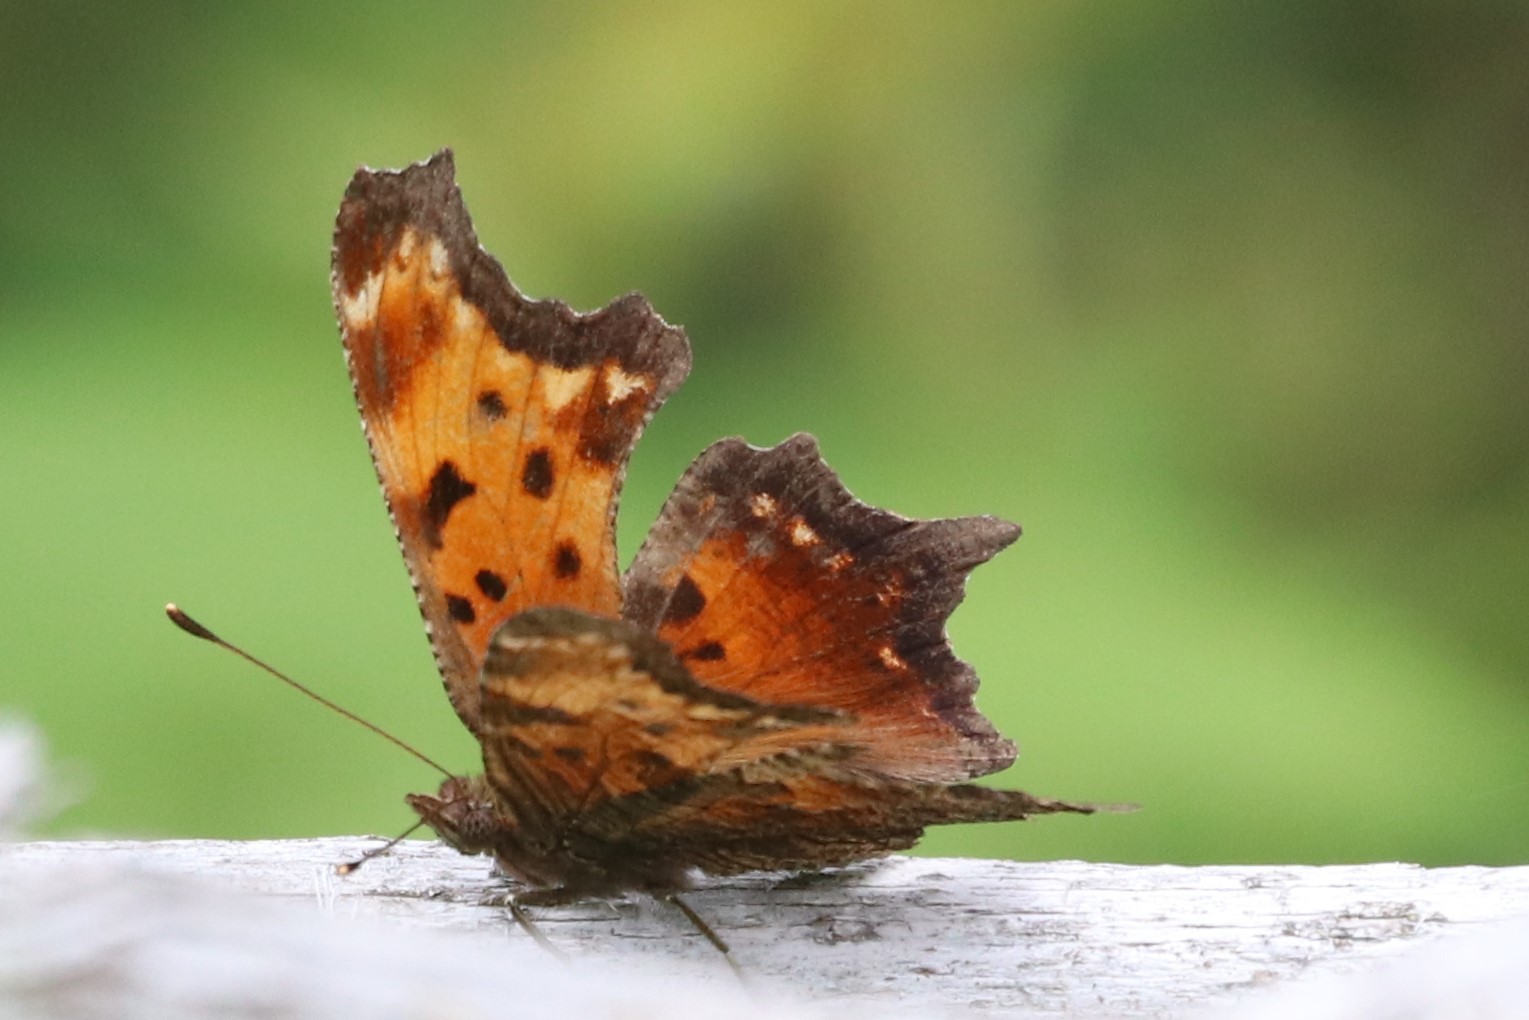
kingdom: Animalia
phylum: Arthropoda
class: Insecta
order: Lepidoptera
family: Nymphalidae
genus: Polygonia
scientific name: Polygonia progne
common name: Gray comma
